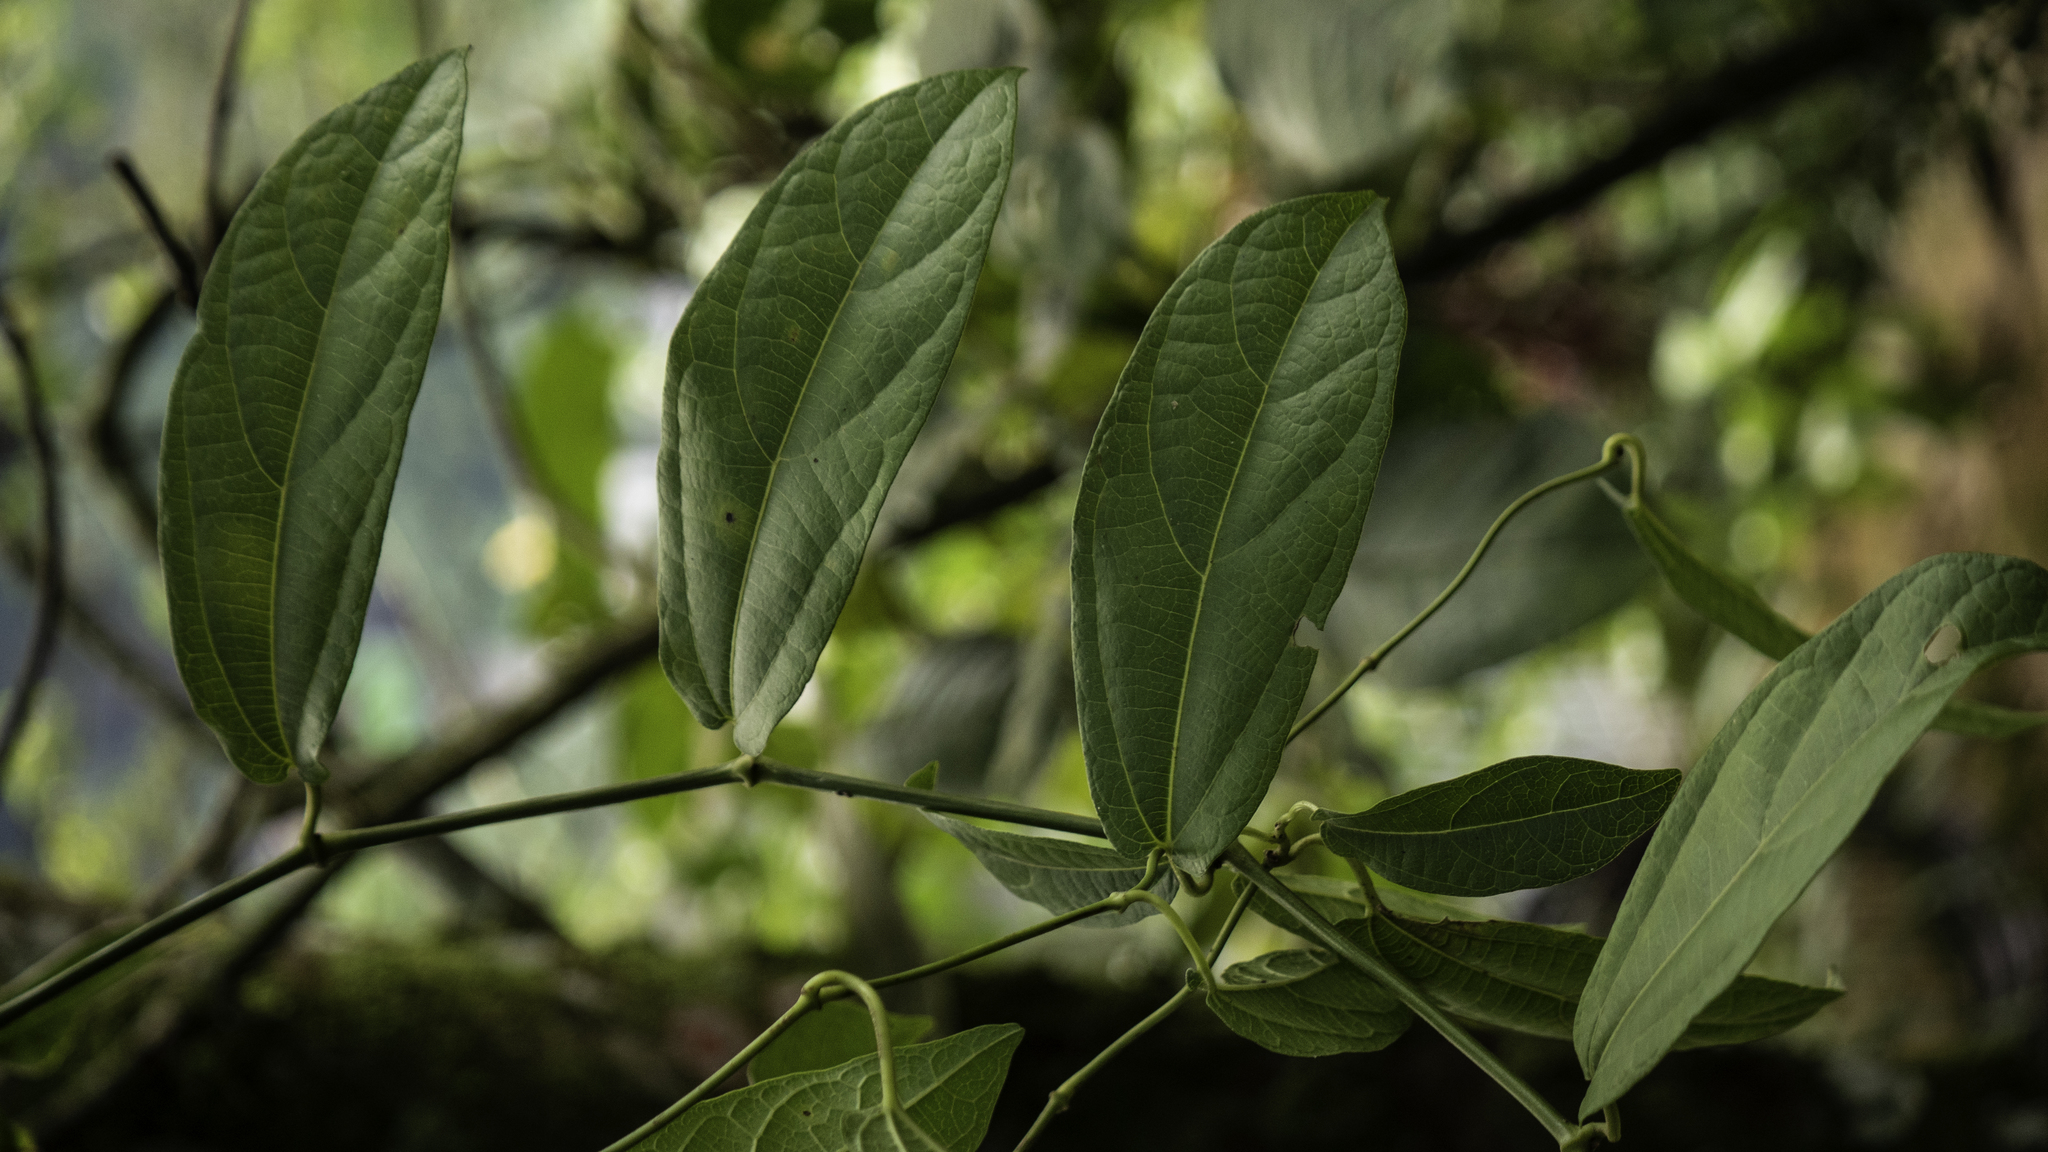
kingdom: Plantae
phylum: Tracheophyta
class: Magnoliopsida
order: Piperales
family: Aristolochiaceae
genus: Aristolochia
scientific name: Aristolochia ovalifolia
